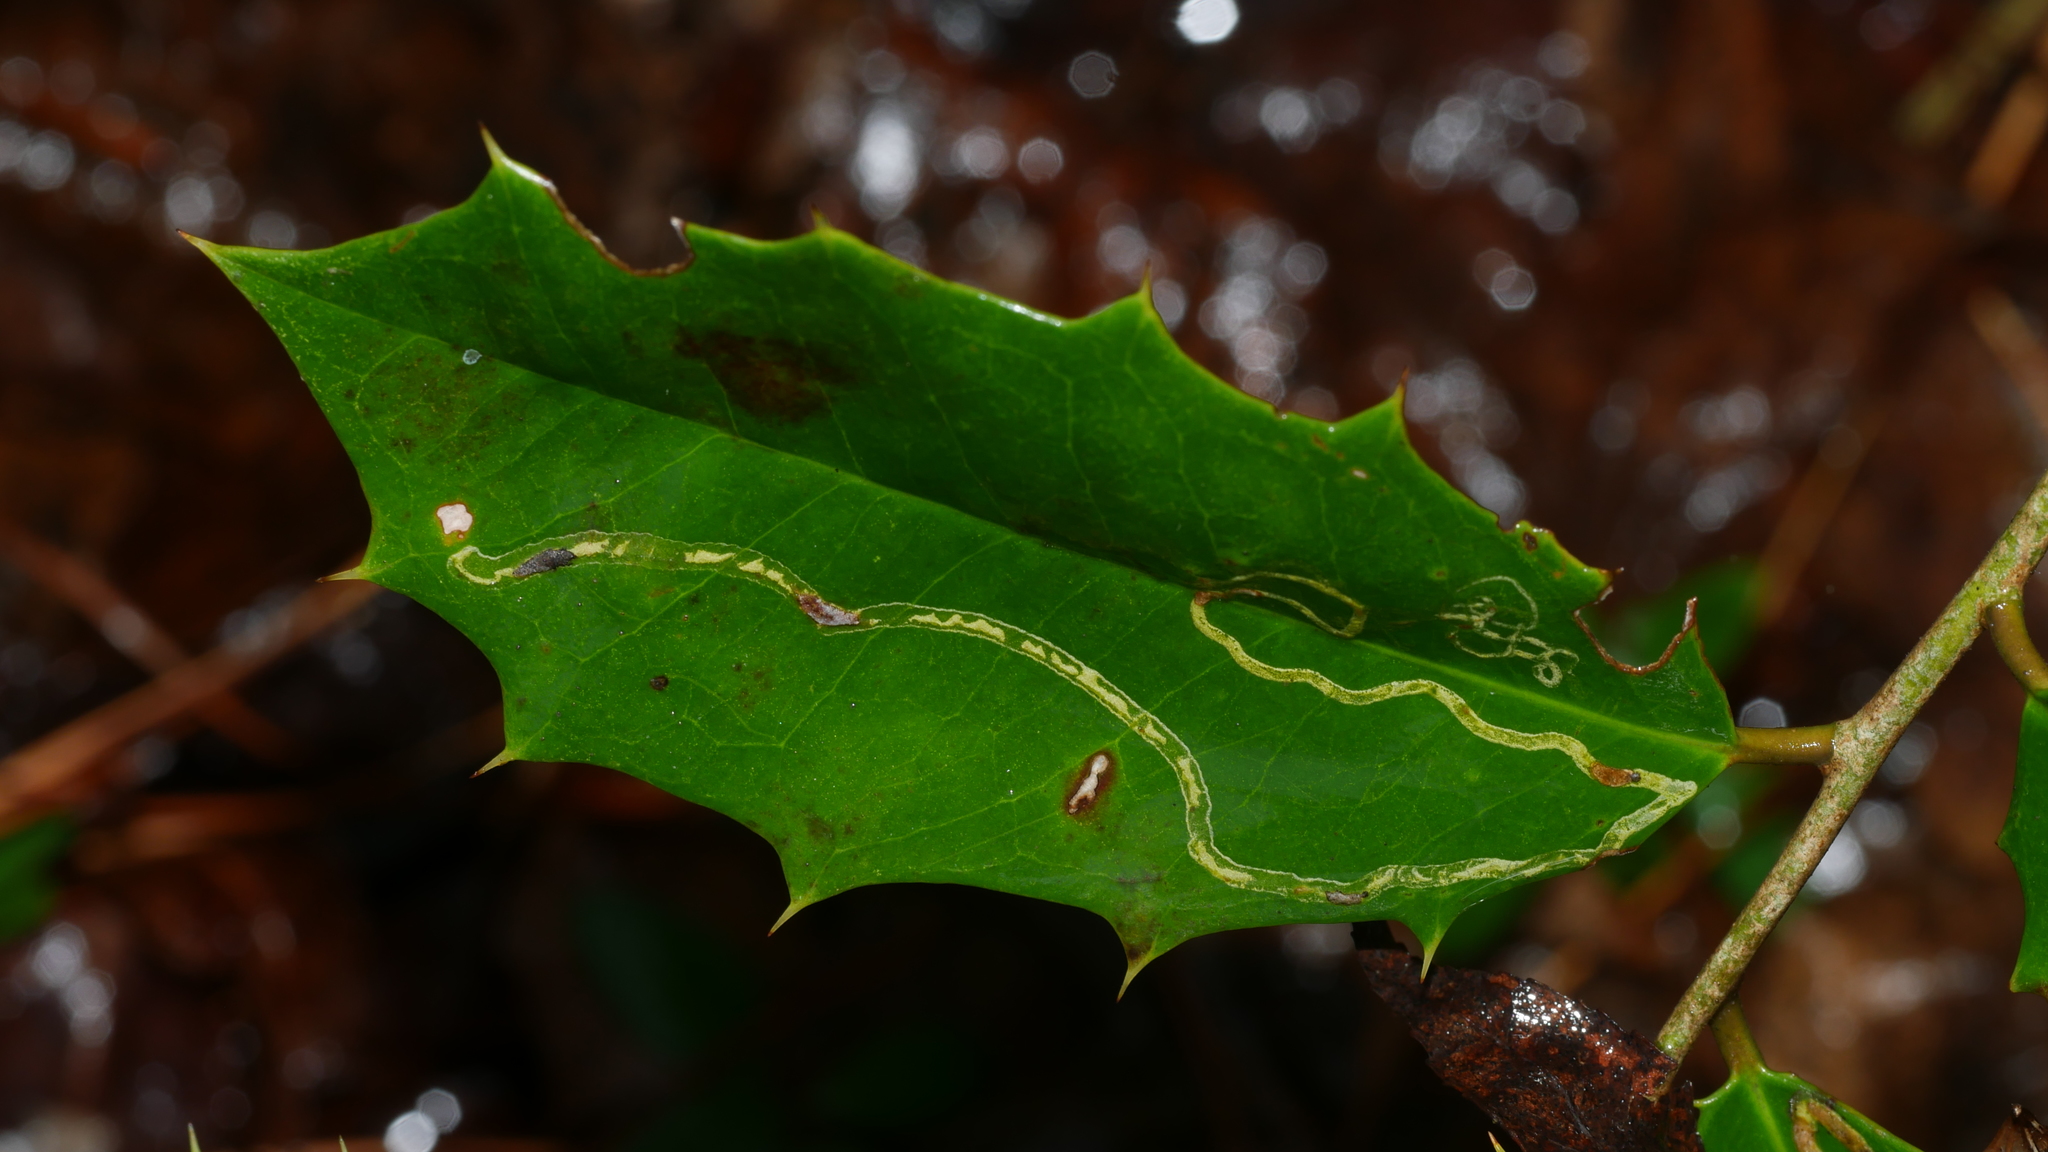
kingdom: Animalia
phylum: Arthropoda
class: Insecta
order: Diptera
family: Agromyzidae
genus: Phytomyza
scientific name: Phytomyza opacae
